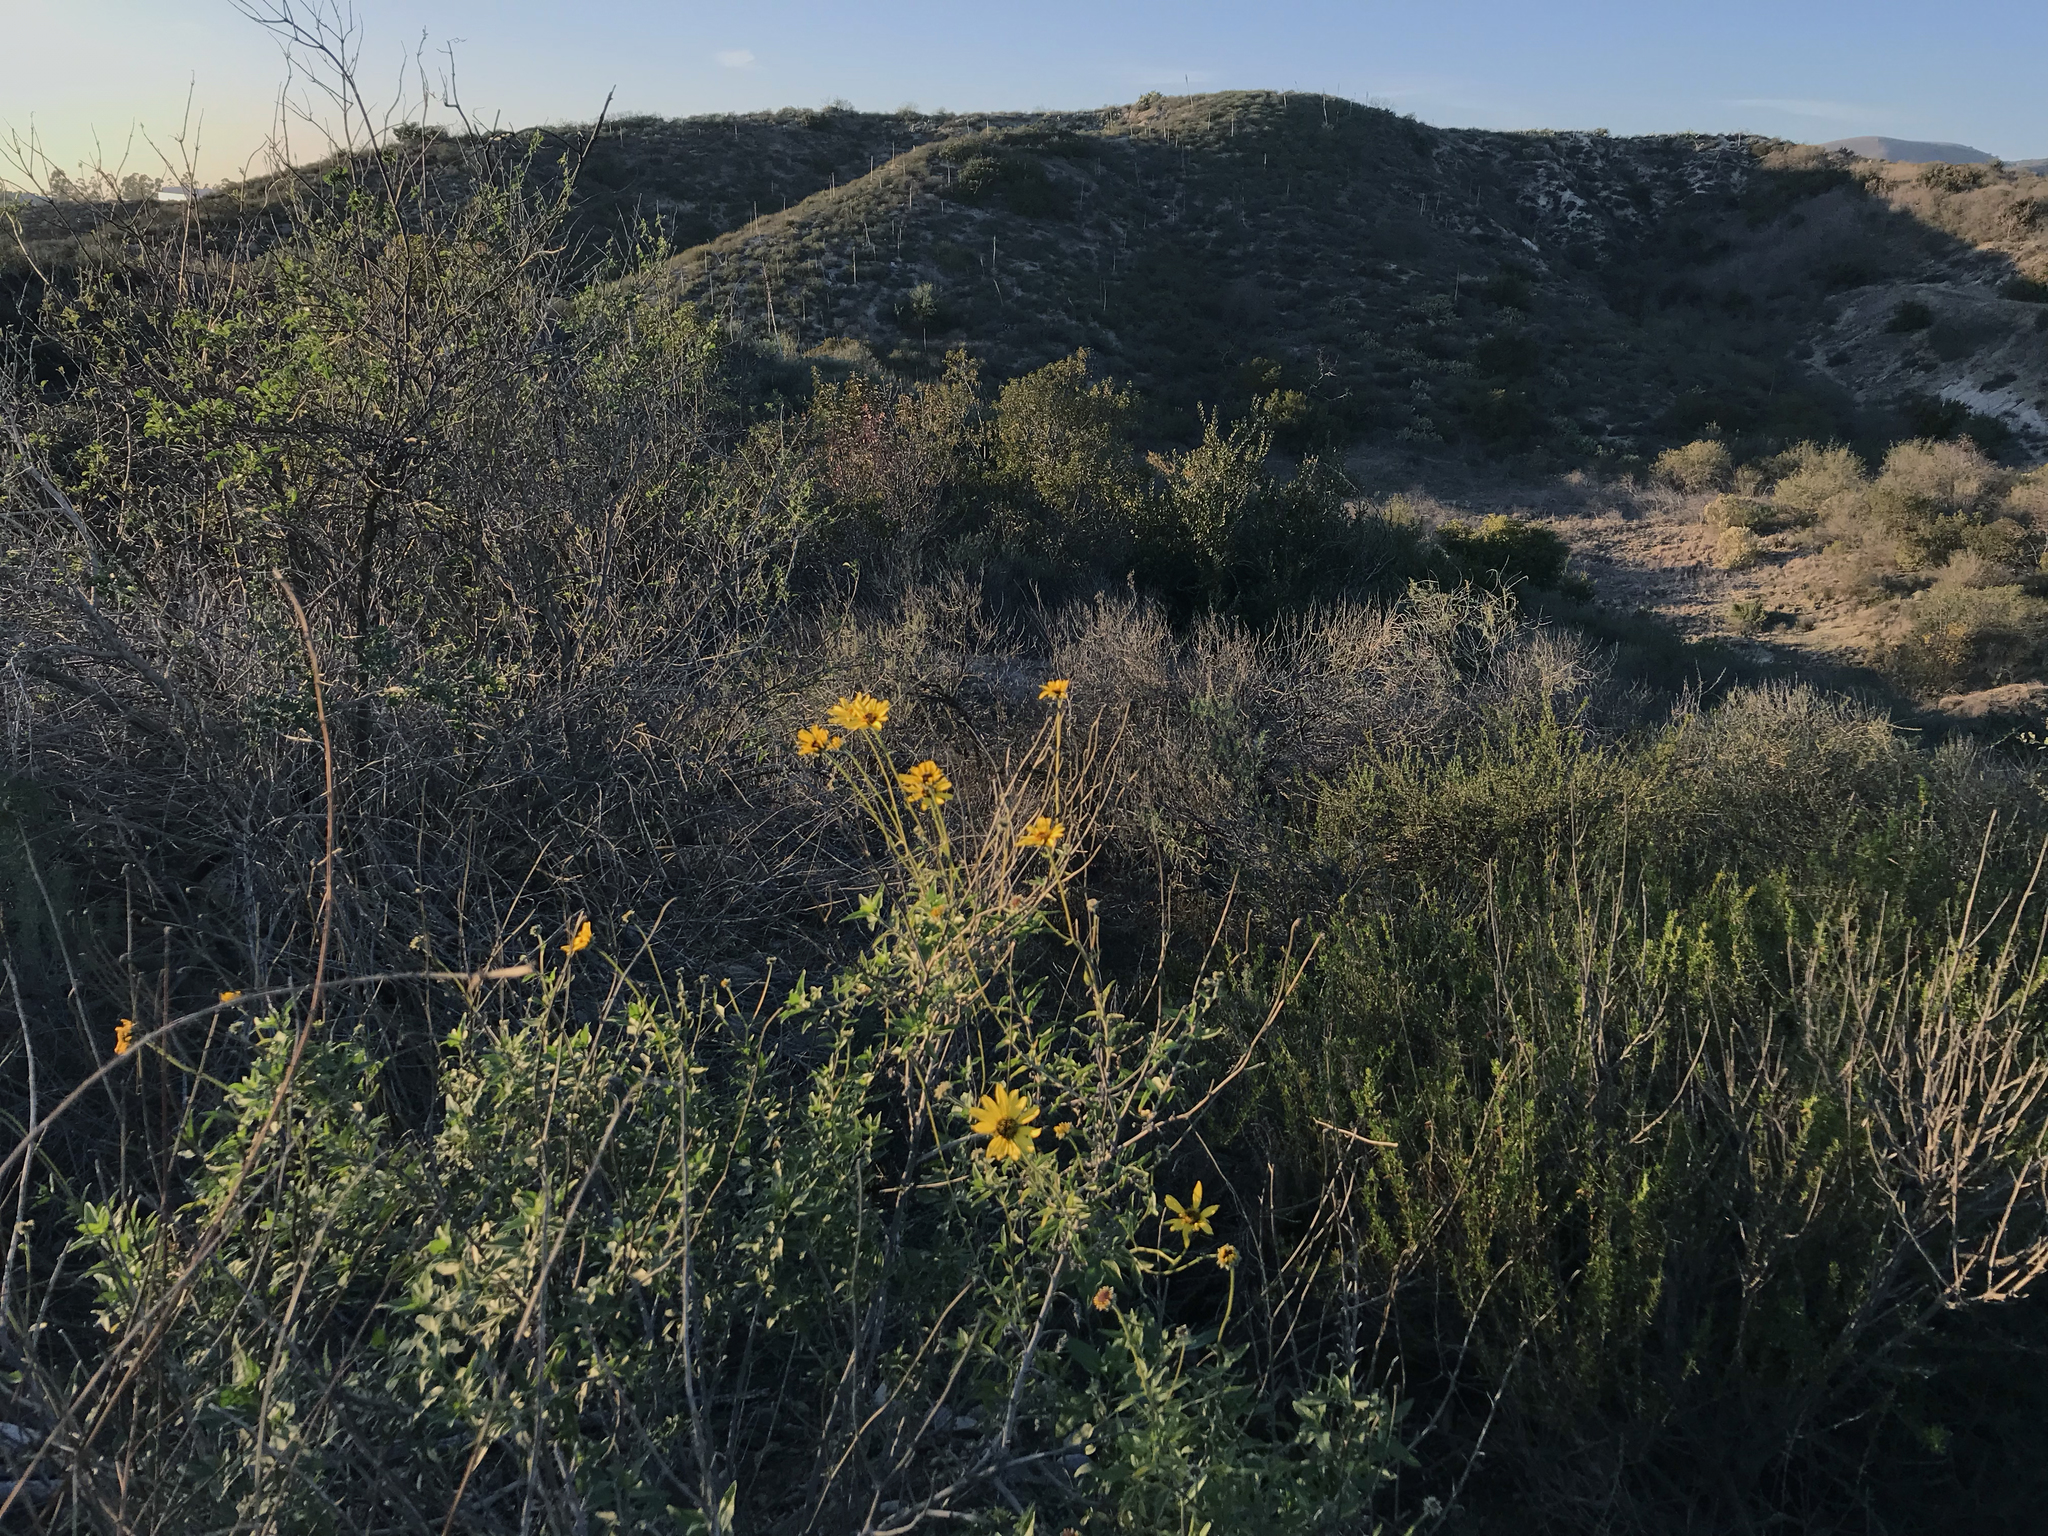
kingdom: Plantae
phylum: Tracheophyta
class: Magnoliopsida
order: Asterales
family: Asteraceae
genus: Encelia
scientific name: Encelia californica
